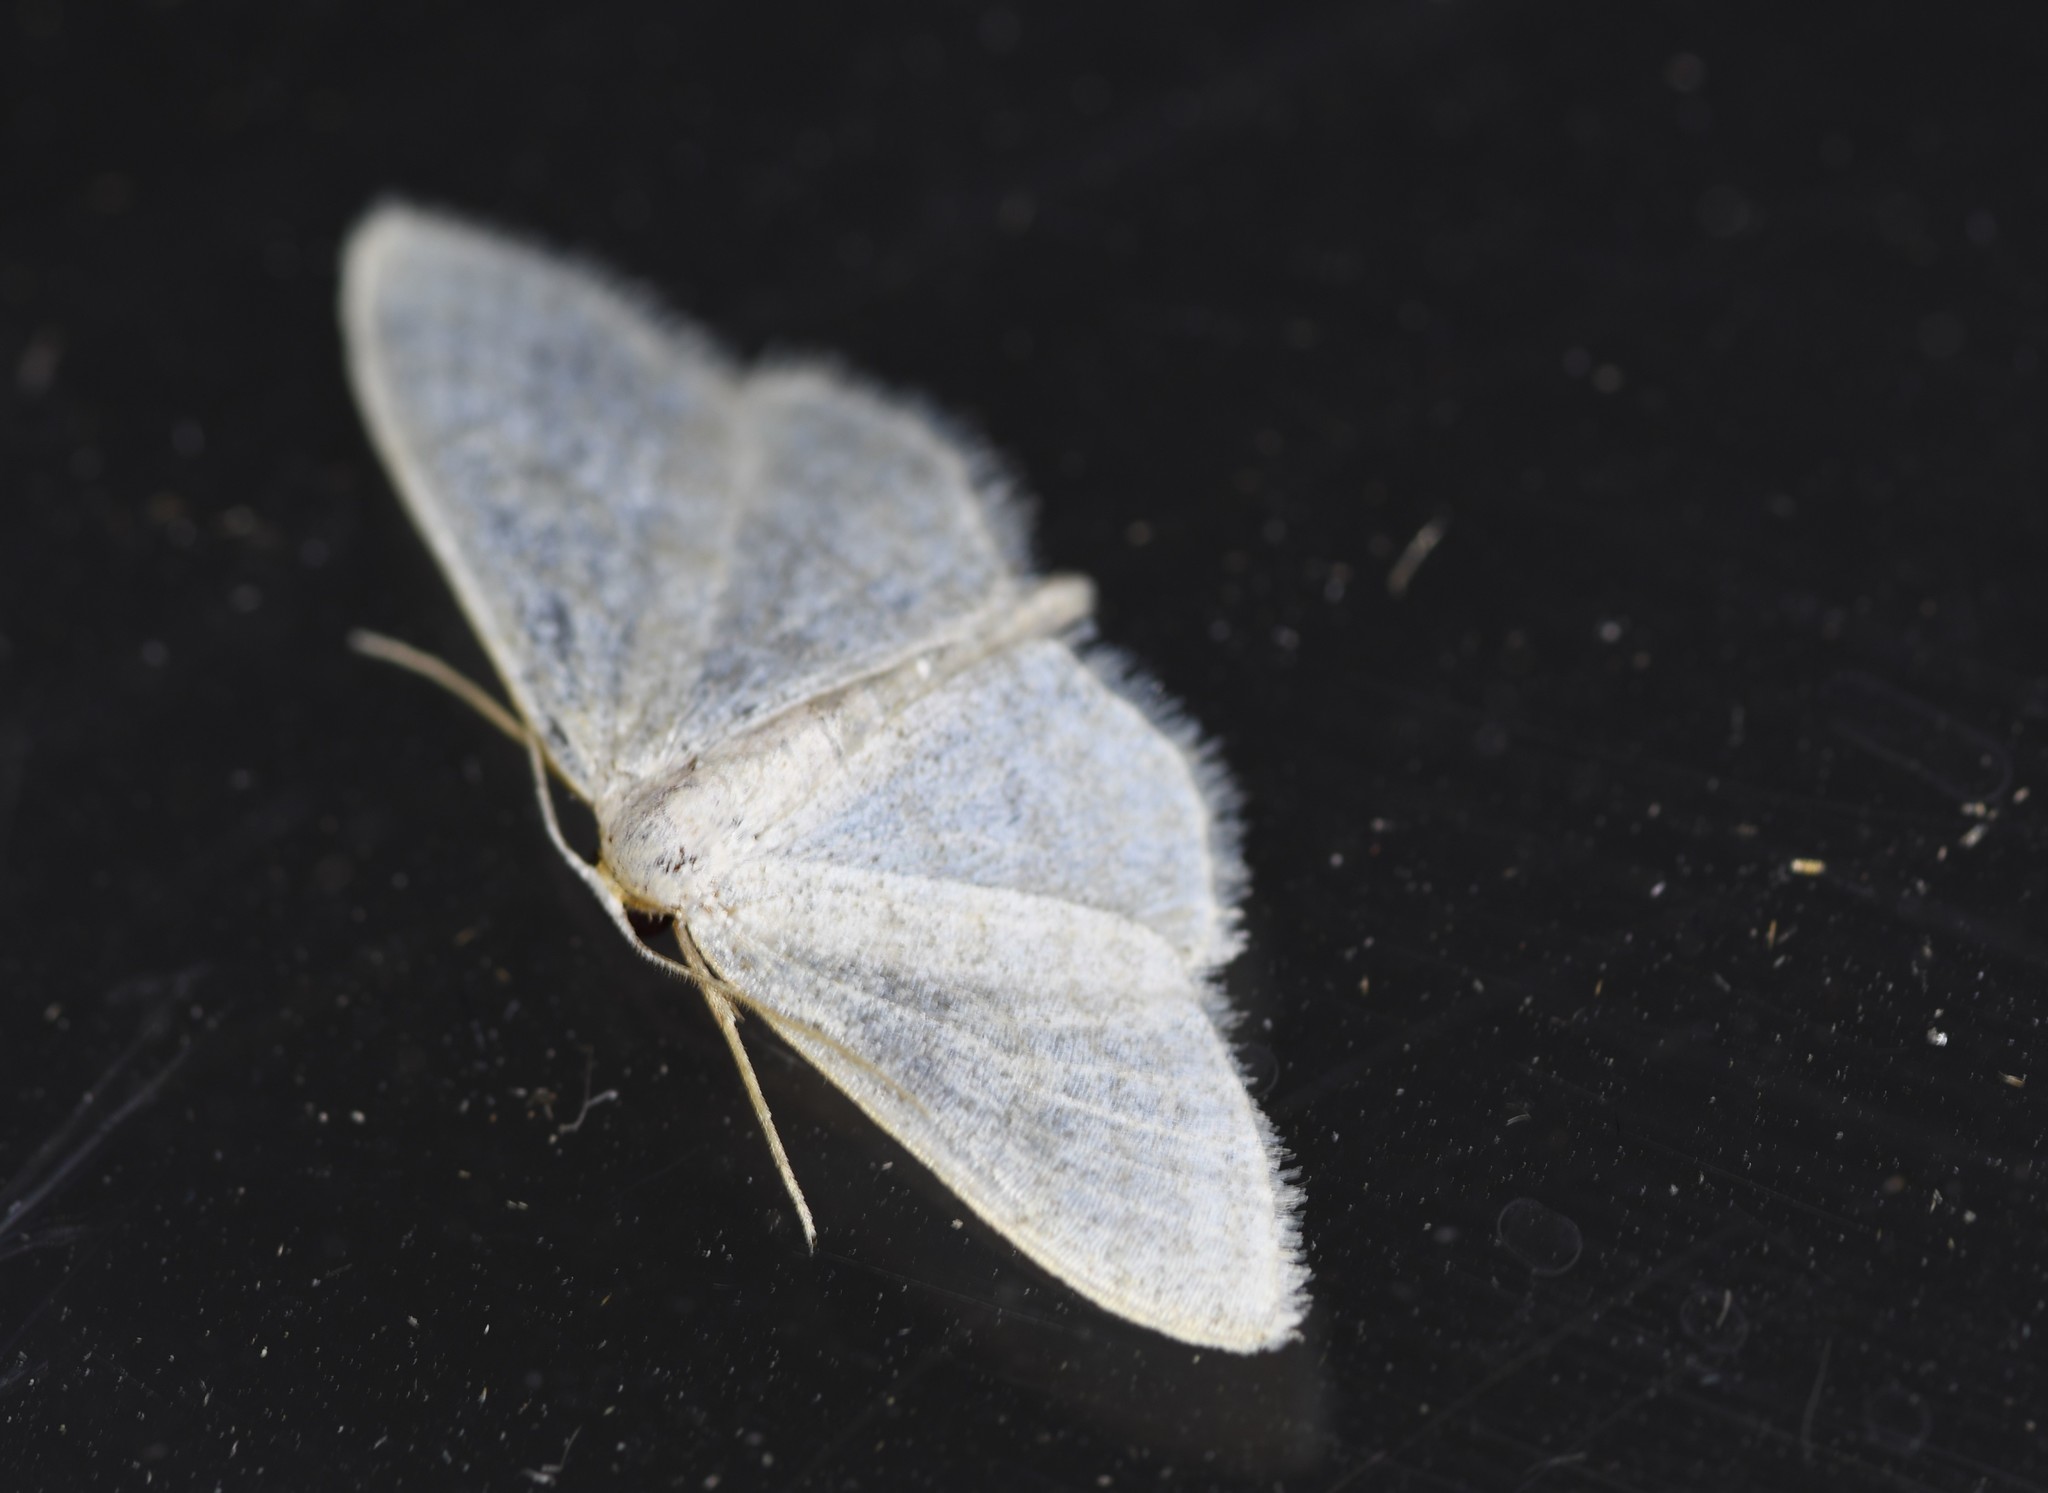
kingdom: Animalia
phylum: Arthropoda
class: Insecta
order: Lepidoptera
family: Geometridae
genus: Idaea
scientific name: Idaea subsericeata
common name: Satin wave
